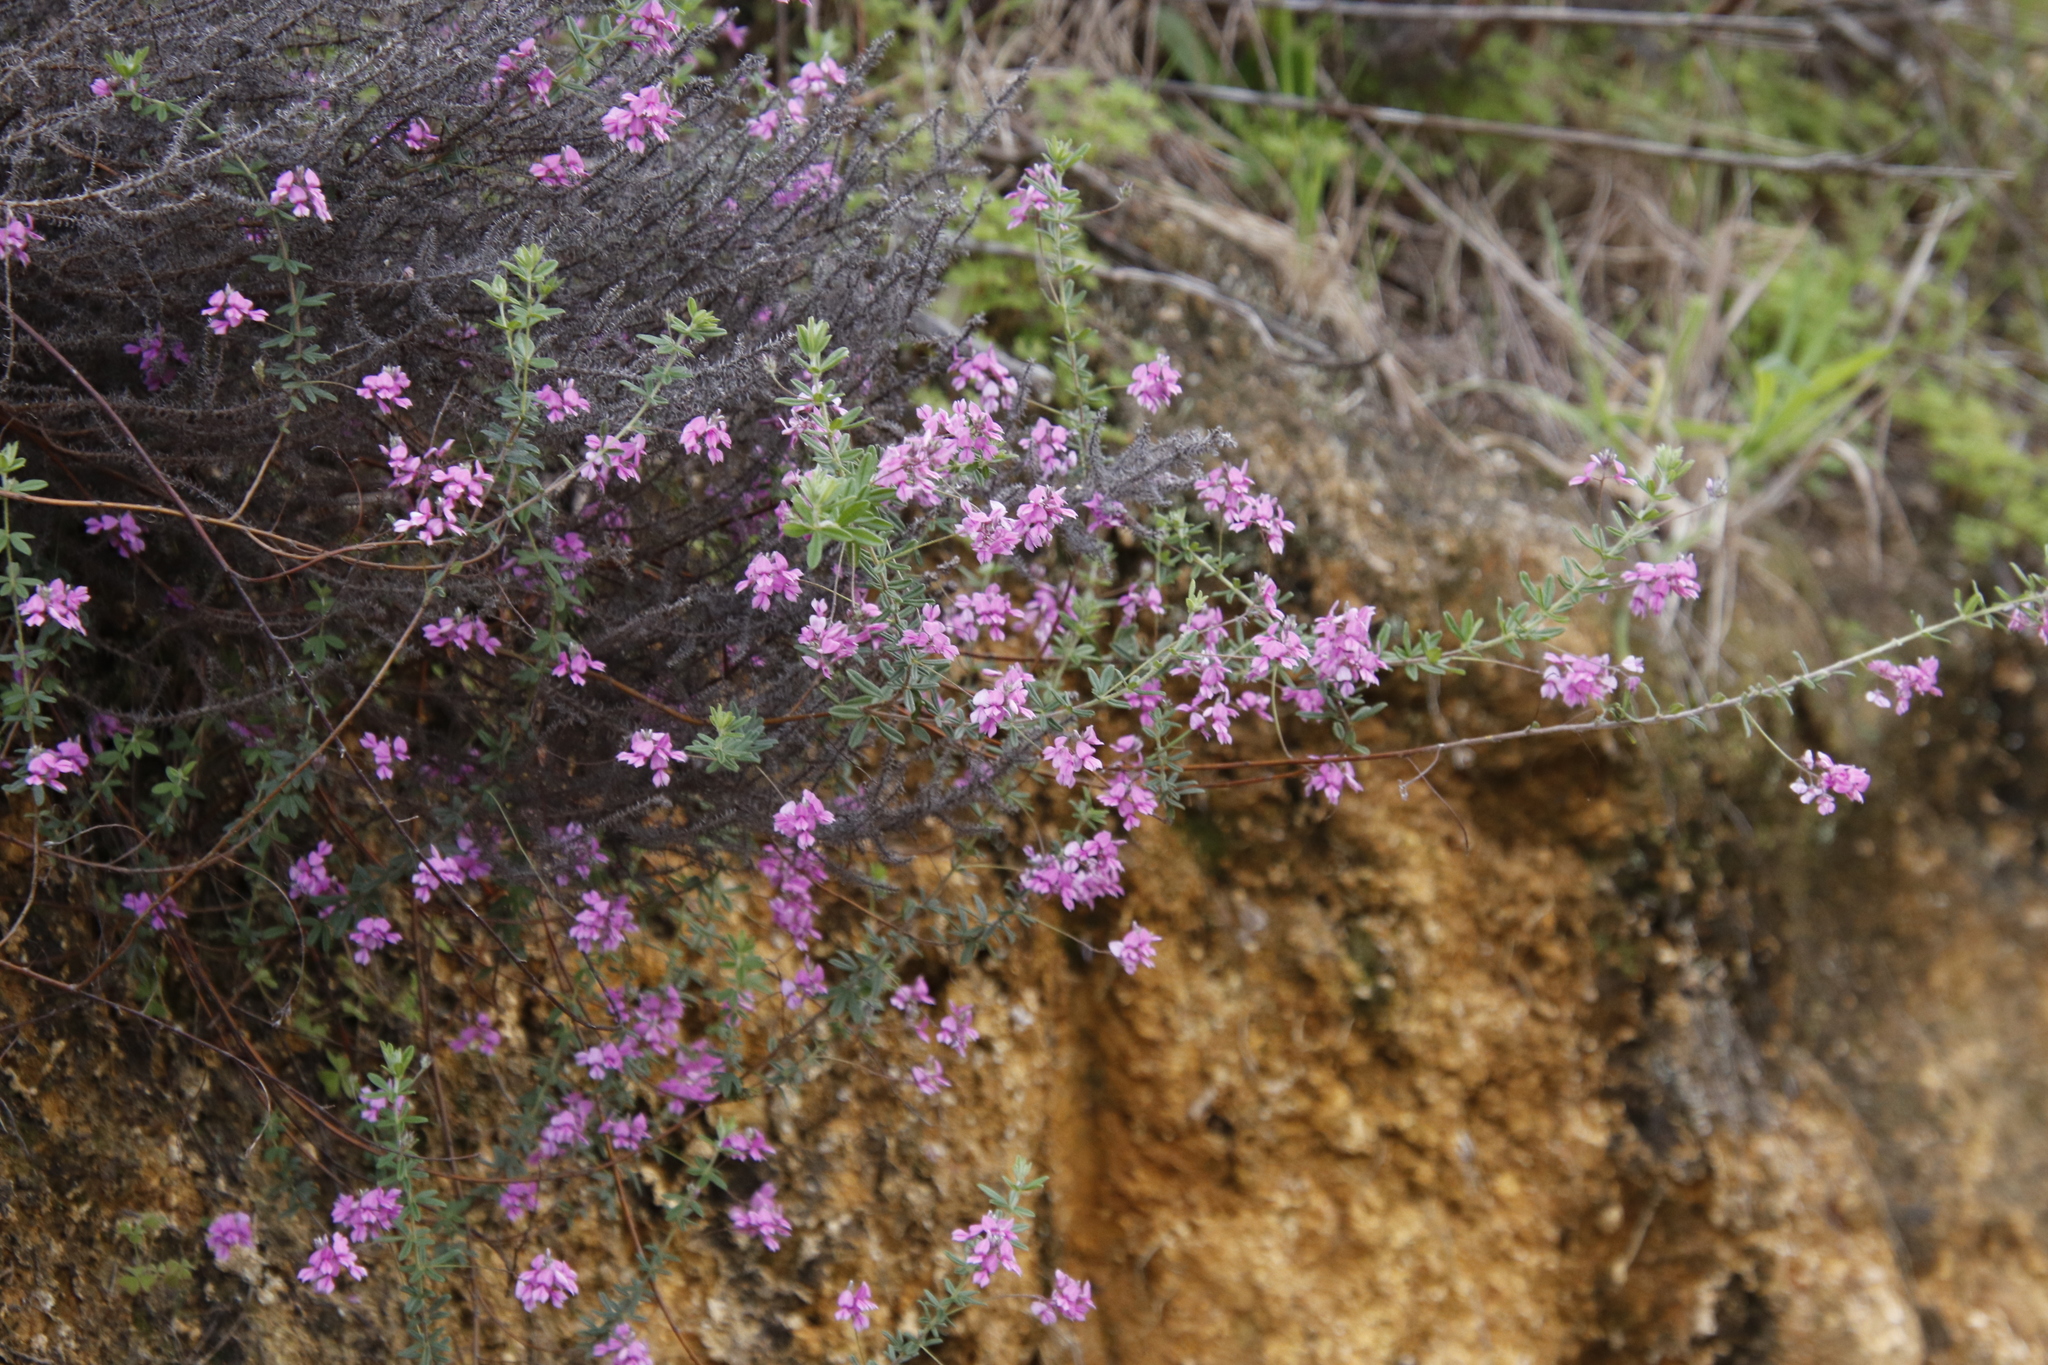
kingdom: Plantae
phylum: Tracheophyta
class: Magnoliopsida
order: Fabales
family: Fabaceae
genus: Indigofera
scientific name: Indigofera filiformis
